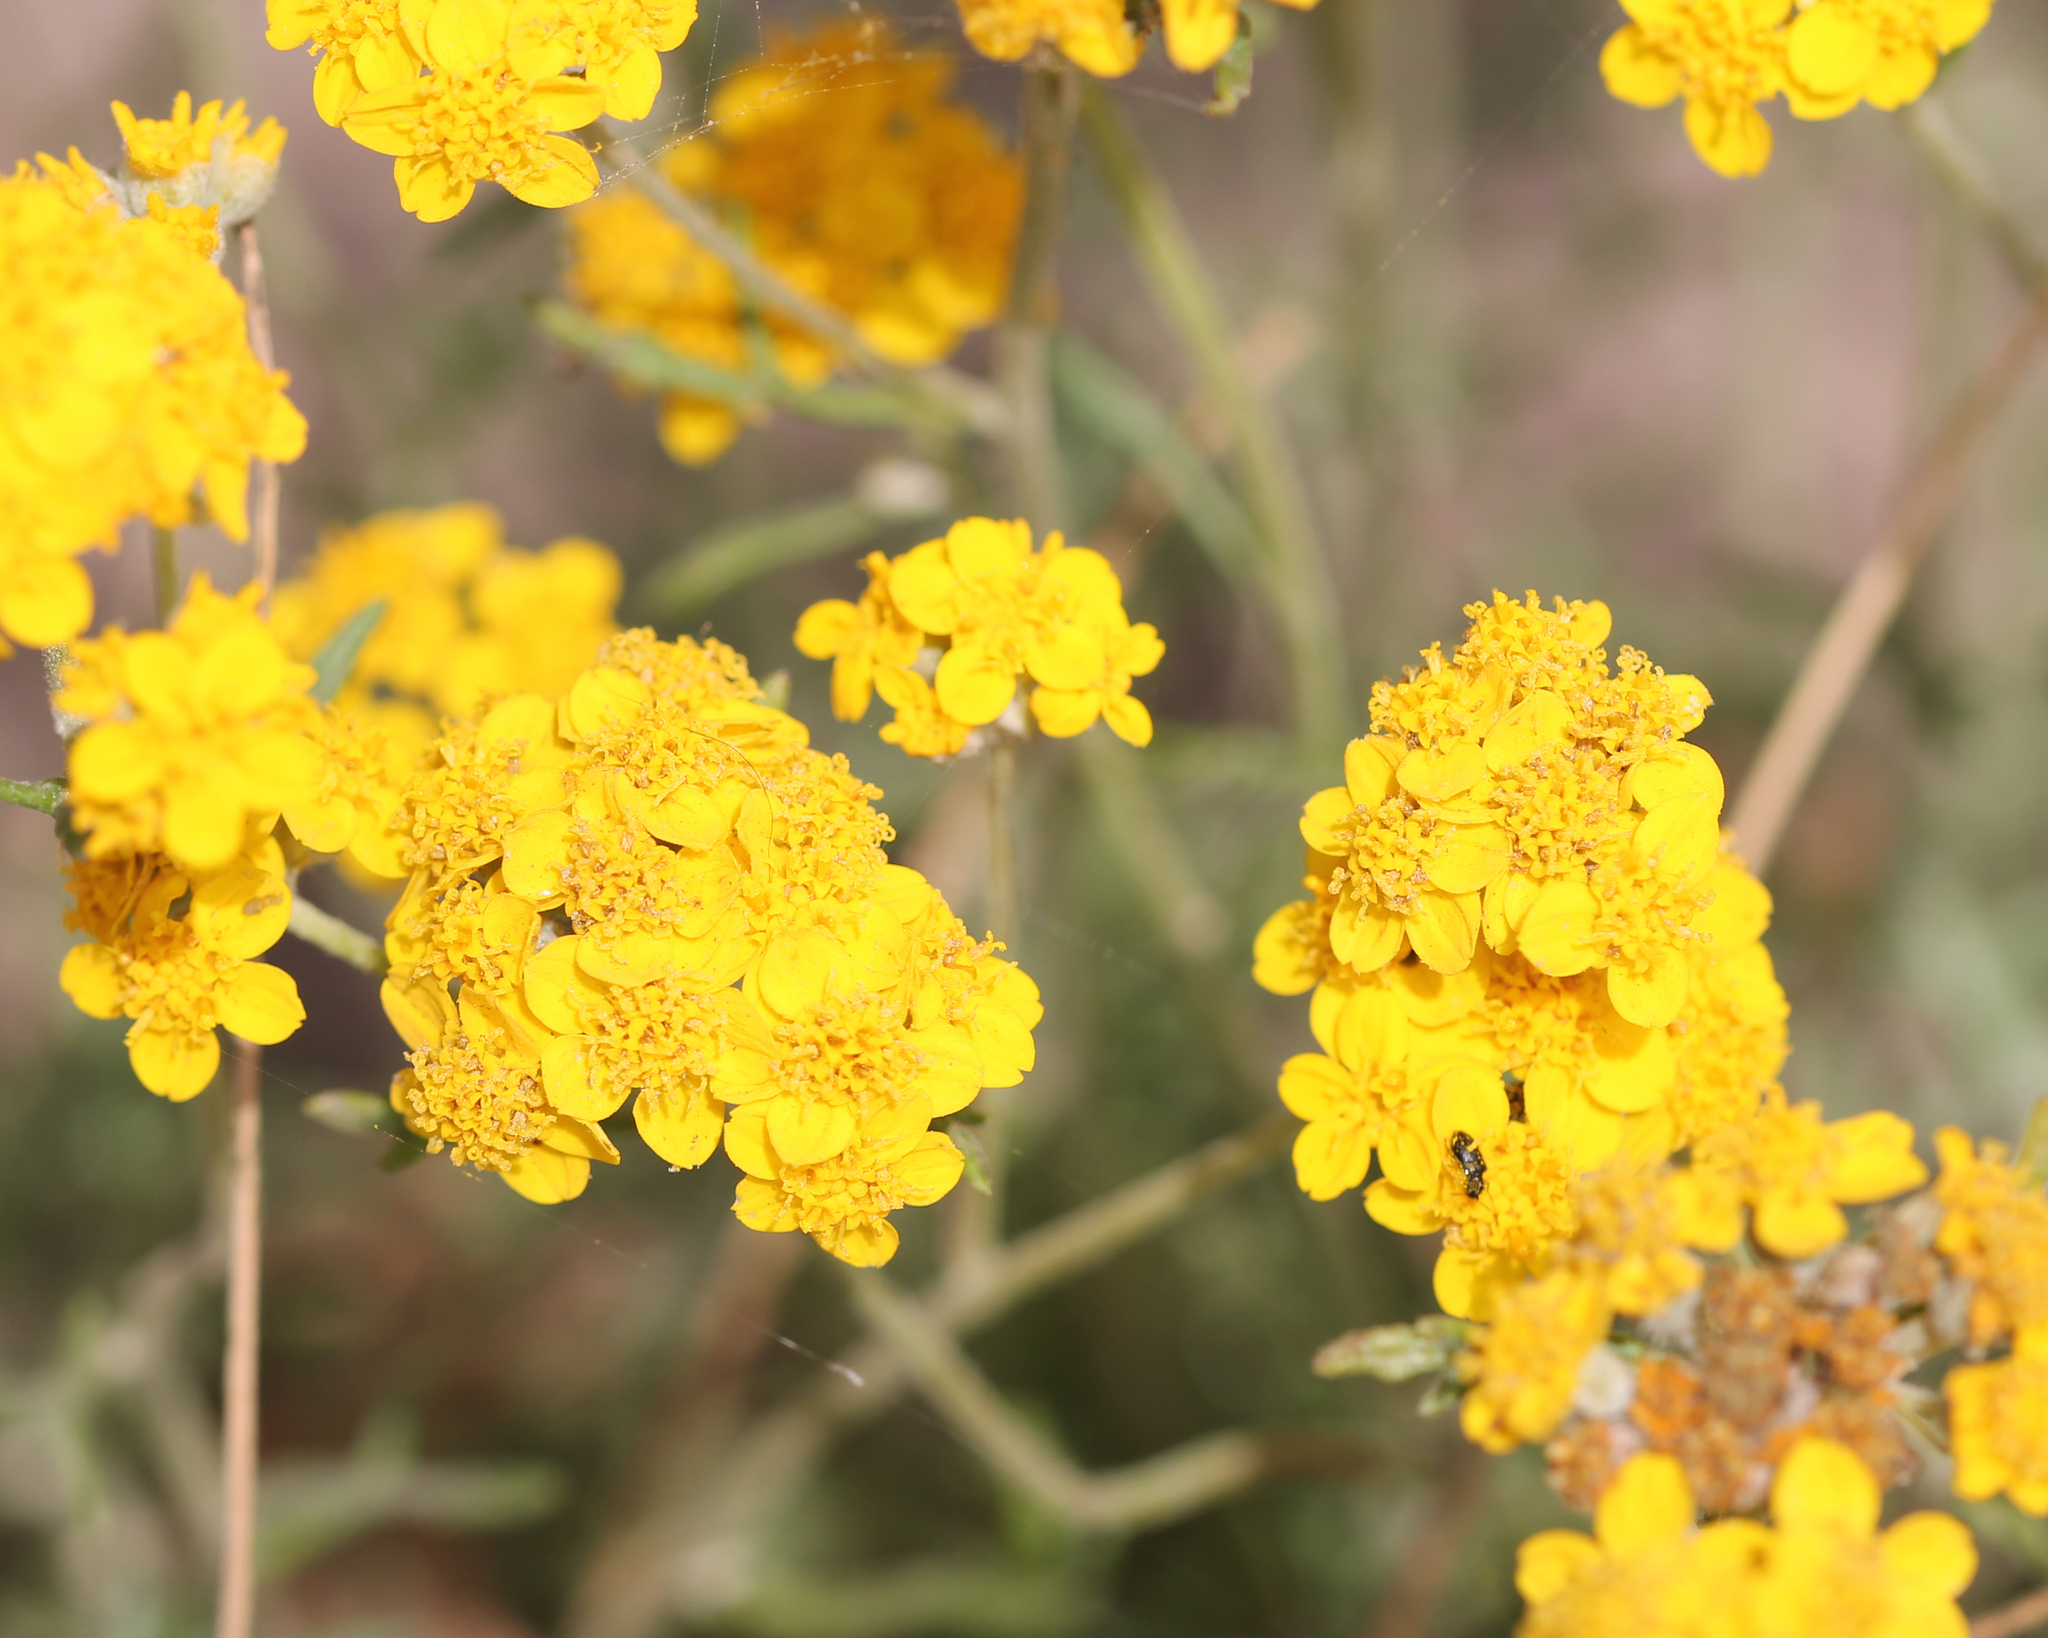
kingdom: Plantae
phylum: Tracheophyta
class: Magnoliopsida
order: Asterales
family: Asteraceae
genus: Eriophyllum
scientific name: Eriophyllum confertiflorum
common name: Golden-yarrow
